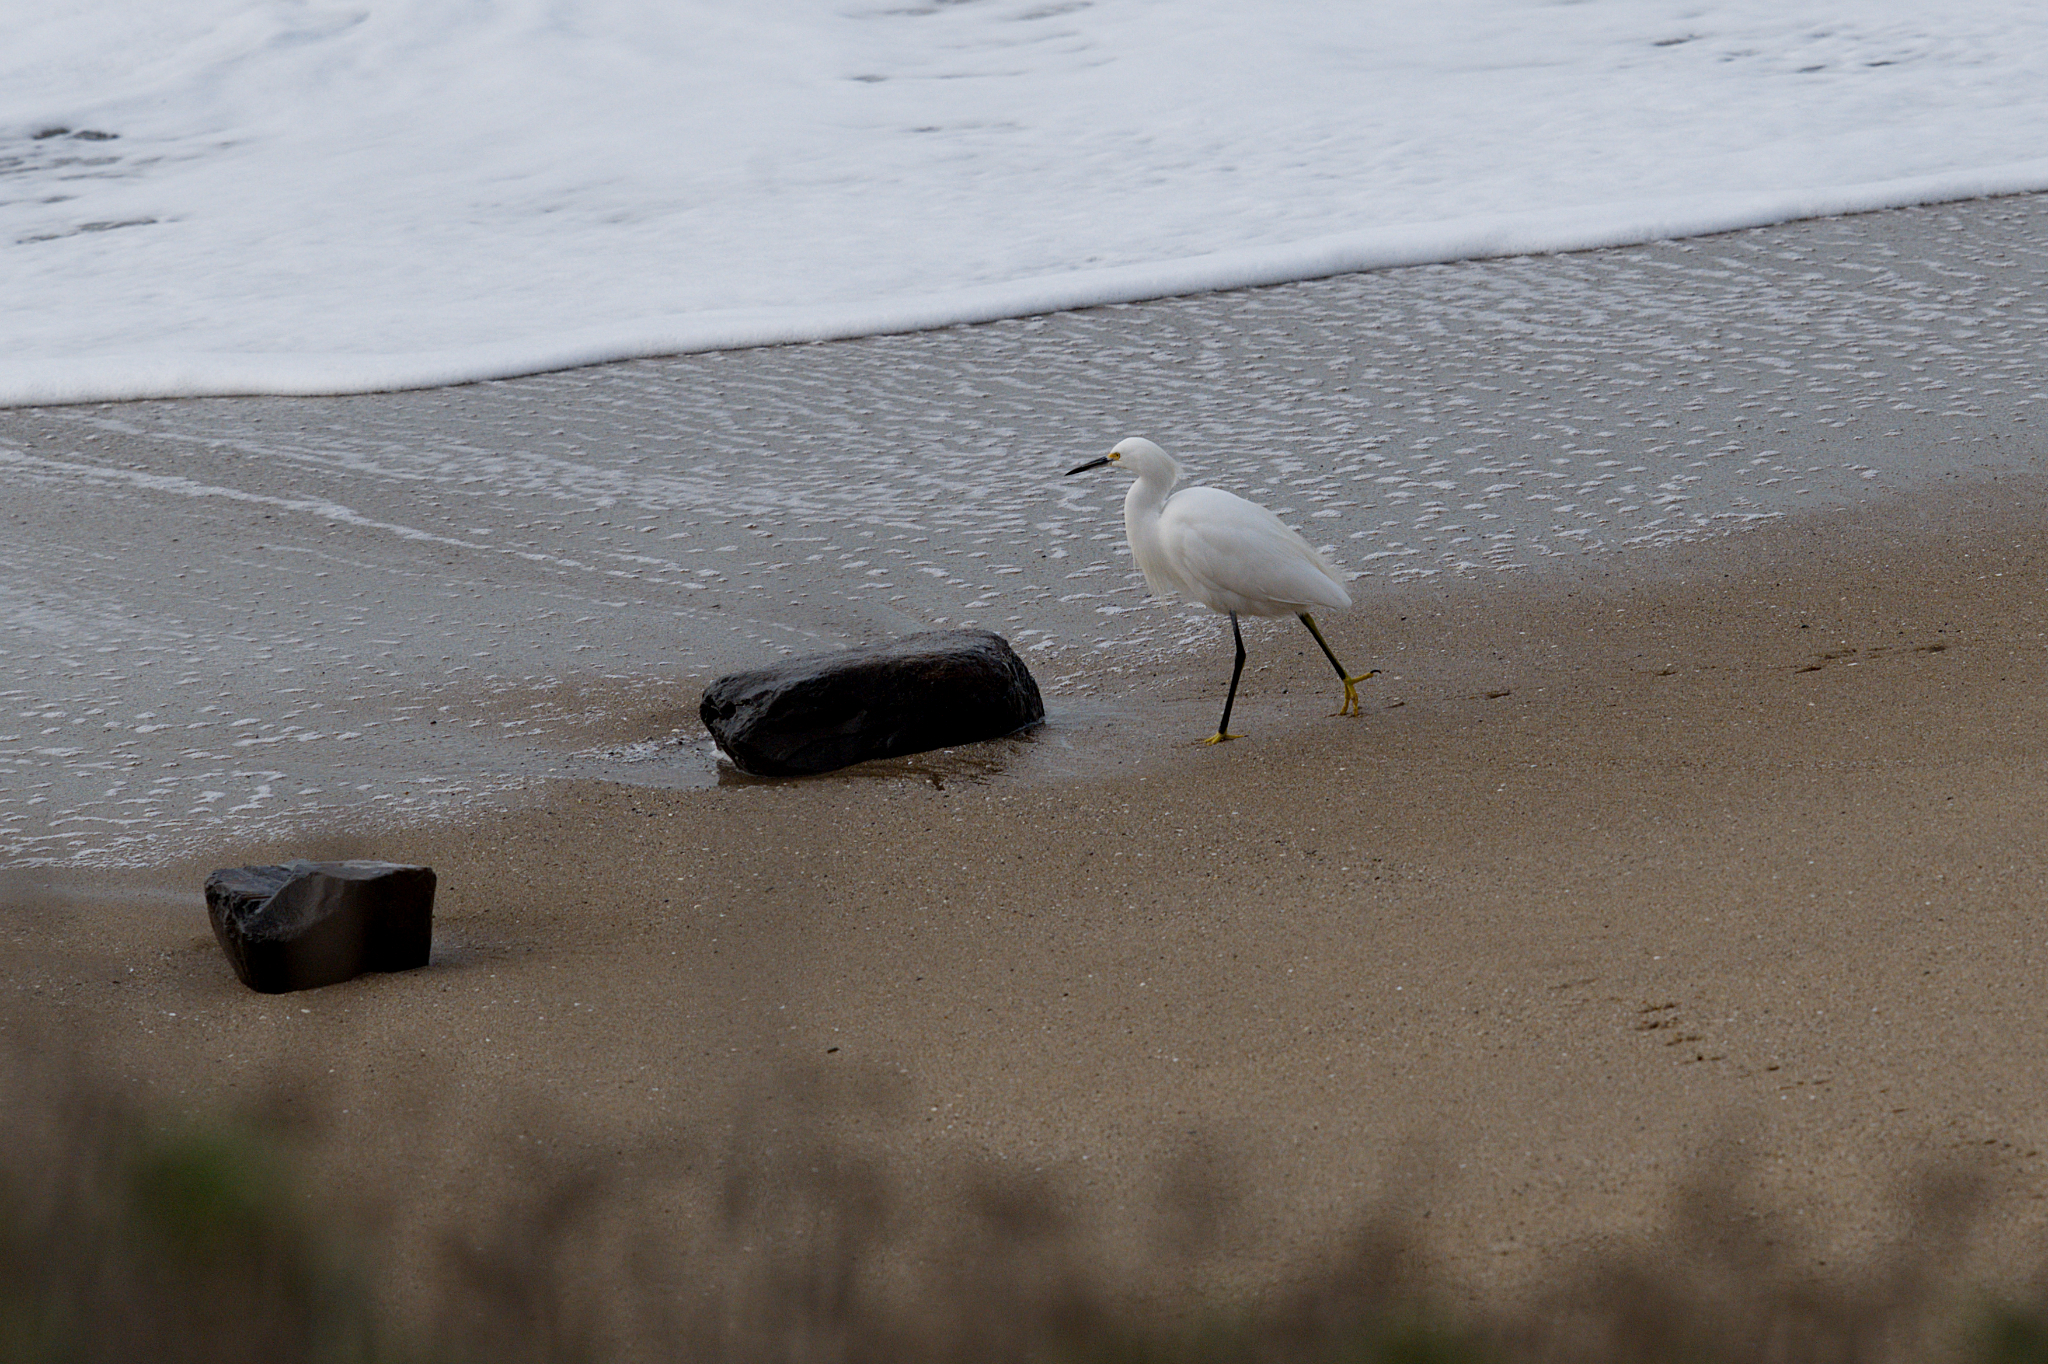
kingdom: Animalia
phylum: Chordata
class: Aves
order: Pelecaniformes
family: Ardeidae
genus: Egretta
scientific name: Egretta thula
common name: Snowy egret
